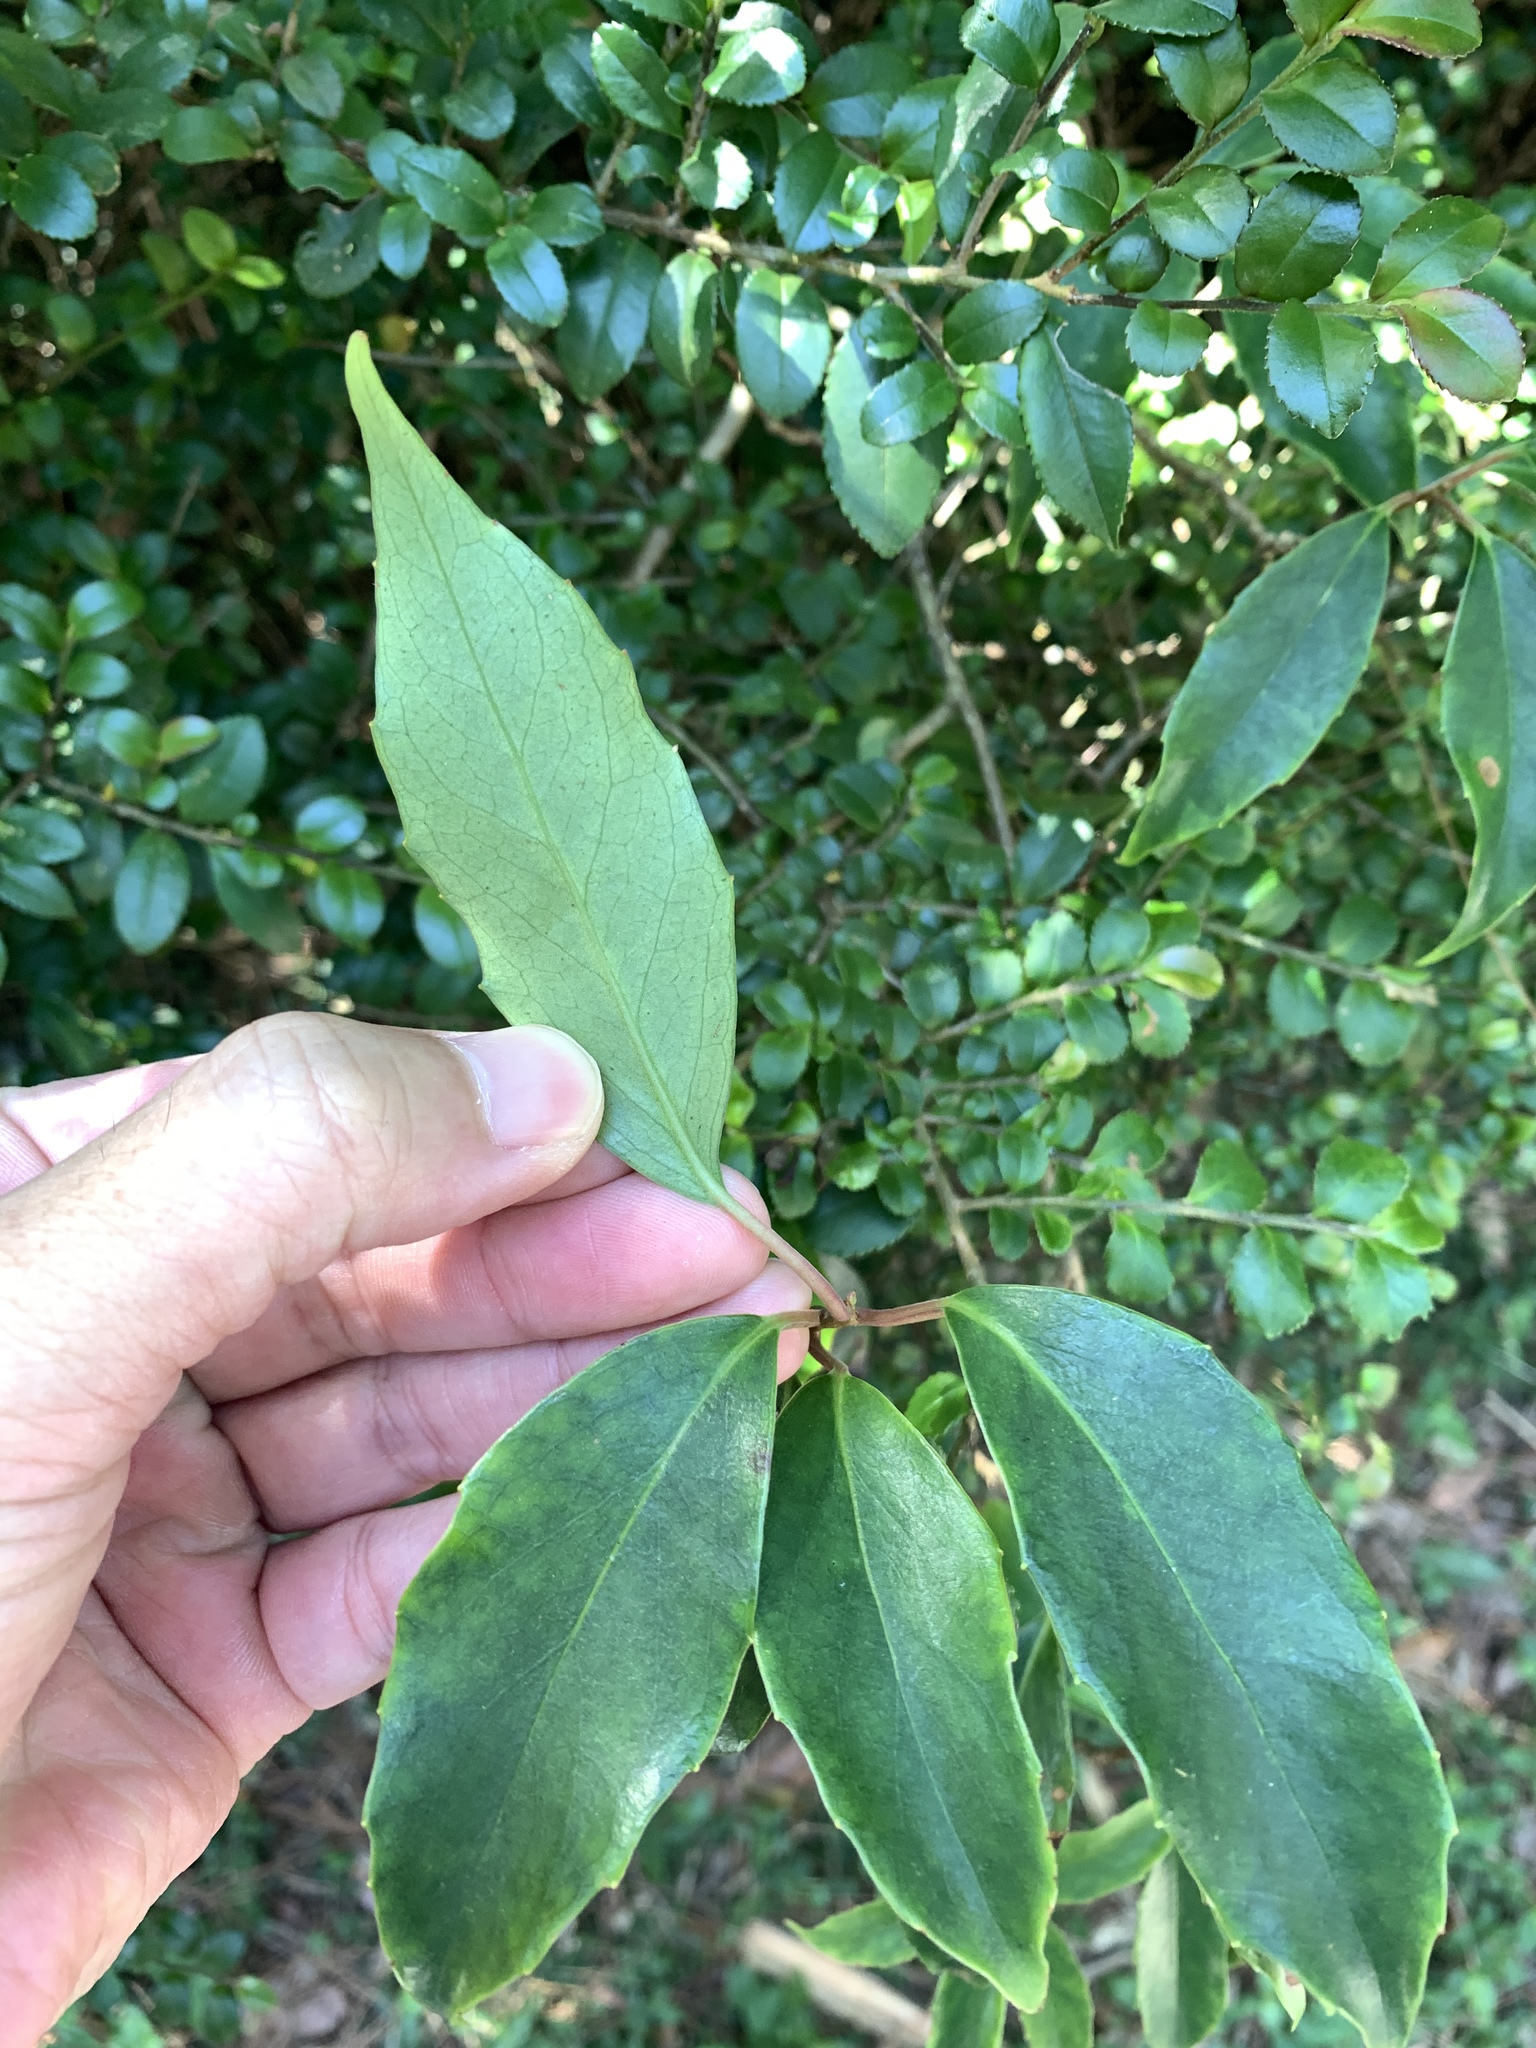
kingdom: Plantae
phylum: Tracheophyta
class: Magnoliopsida
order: Austrobaileyales
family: Schisandraceae
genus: Kadsura
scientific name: Kadsura matsudae
